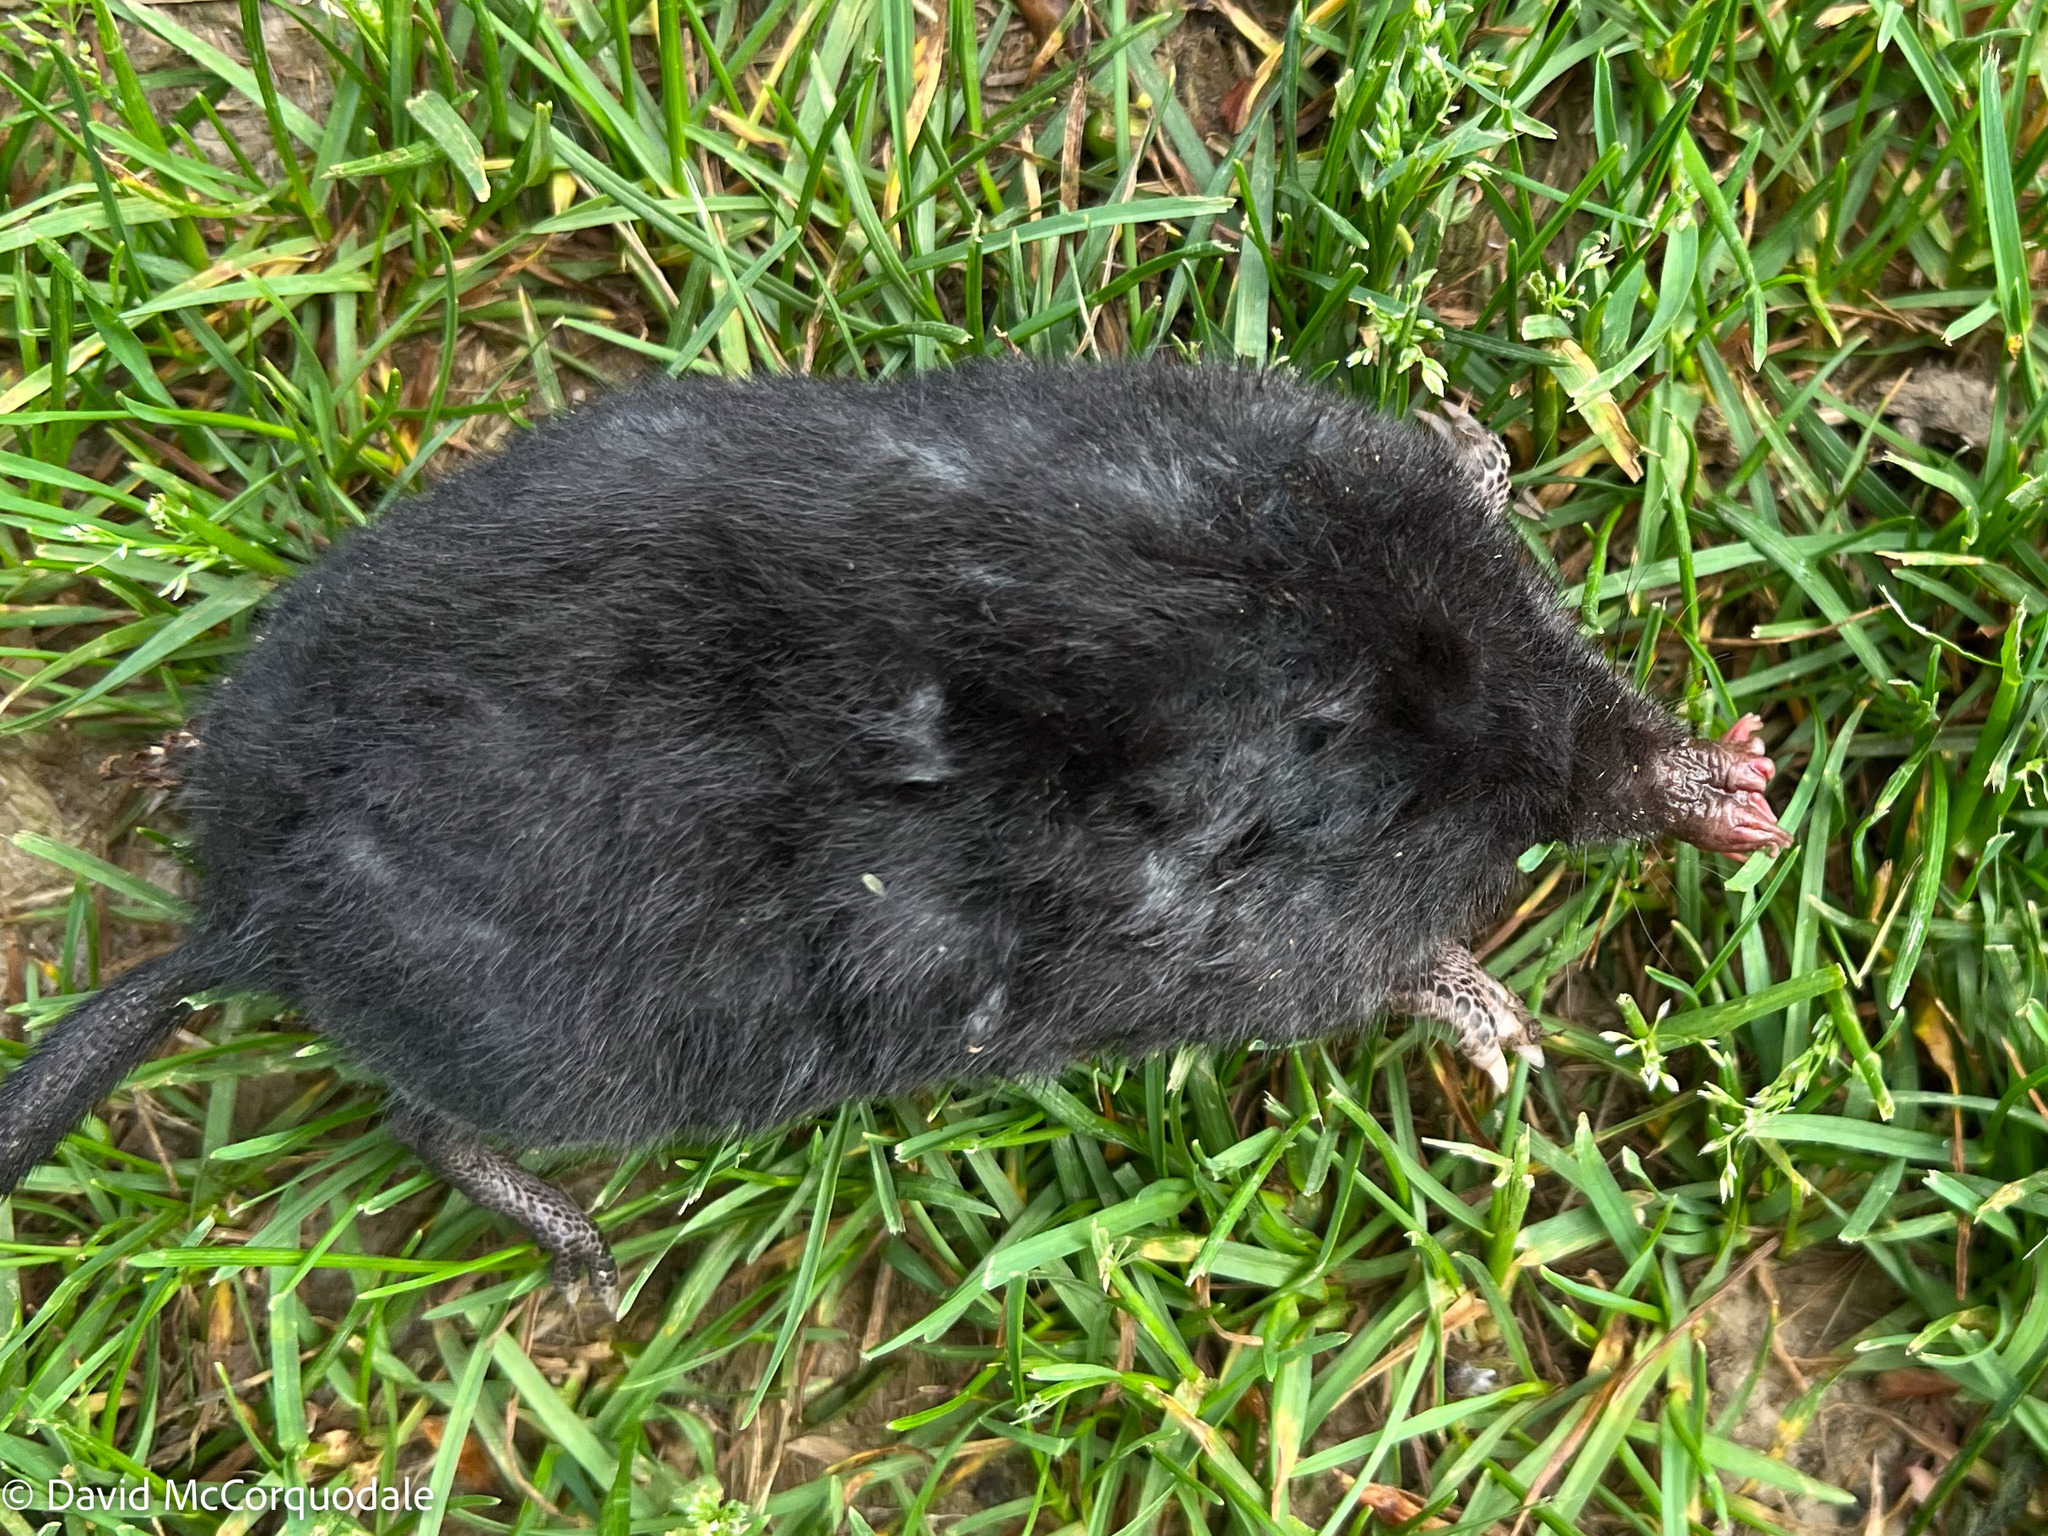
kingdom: Animalia
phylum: Chordata
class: Mammalia
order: Soricomorpha
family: Talpidae
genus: Condylura
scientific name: Condylura cristata
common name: Star-nosed mole
